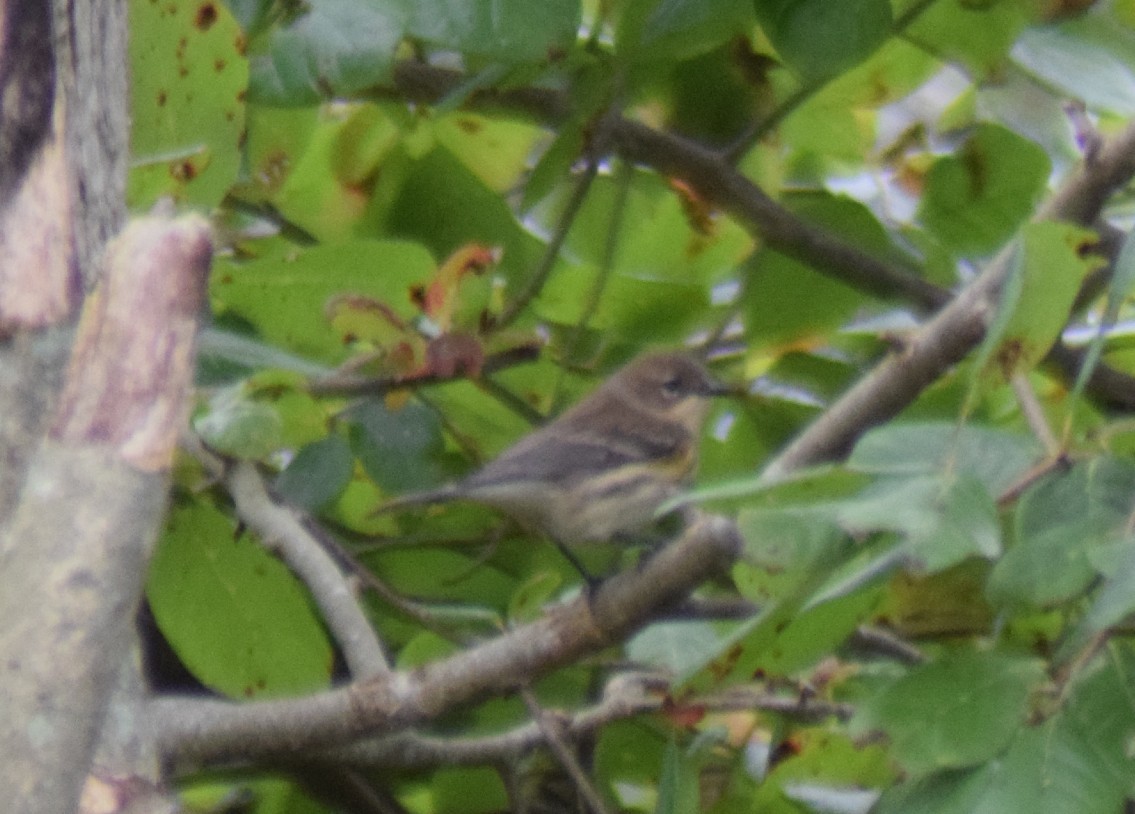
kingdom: Animalia
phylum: Chordata
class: Aves
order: Passeriformes
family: Parulidae
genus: Setophaga
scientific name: Setophaga coronata
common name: Myrtle warbler
